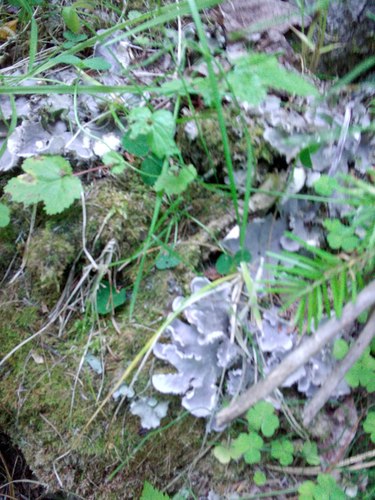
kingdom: Fungi
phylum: Ascomycota
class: Lecanoromycetes
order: Peltigerales
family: Peltigeraceae
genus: Peltigera
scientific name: Peltigera canina
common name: Dog pelt lichen
